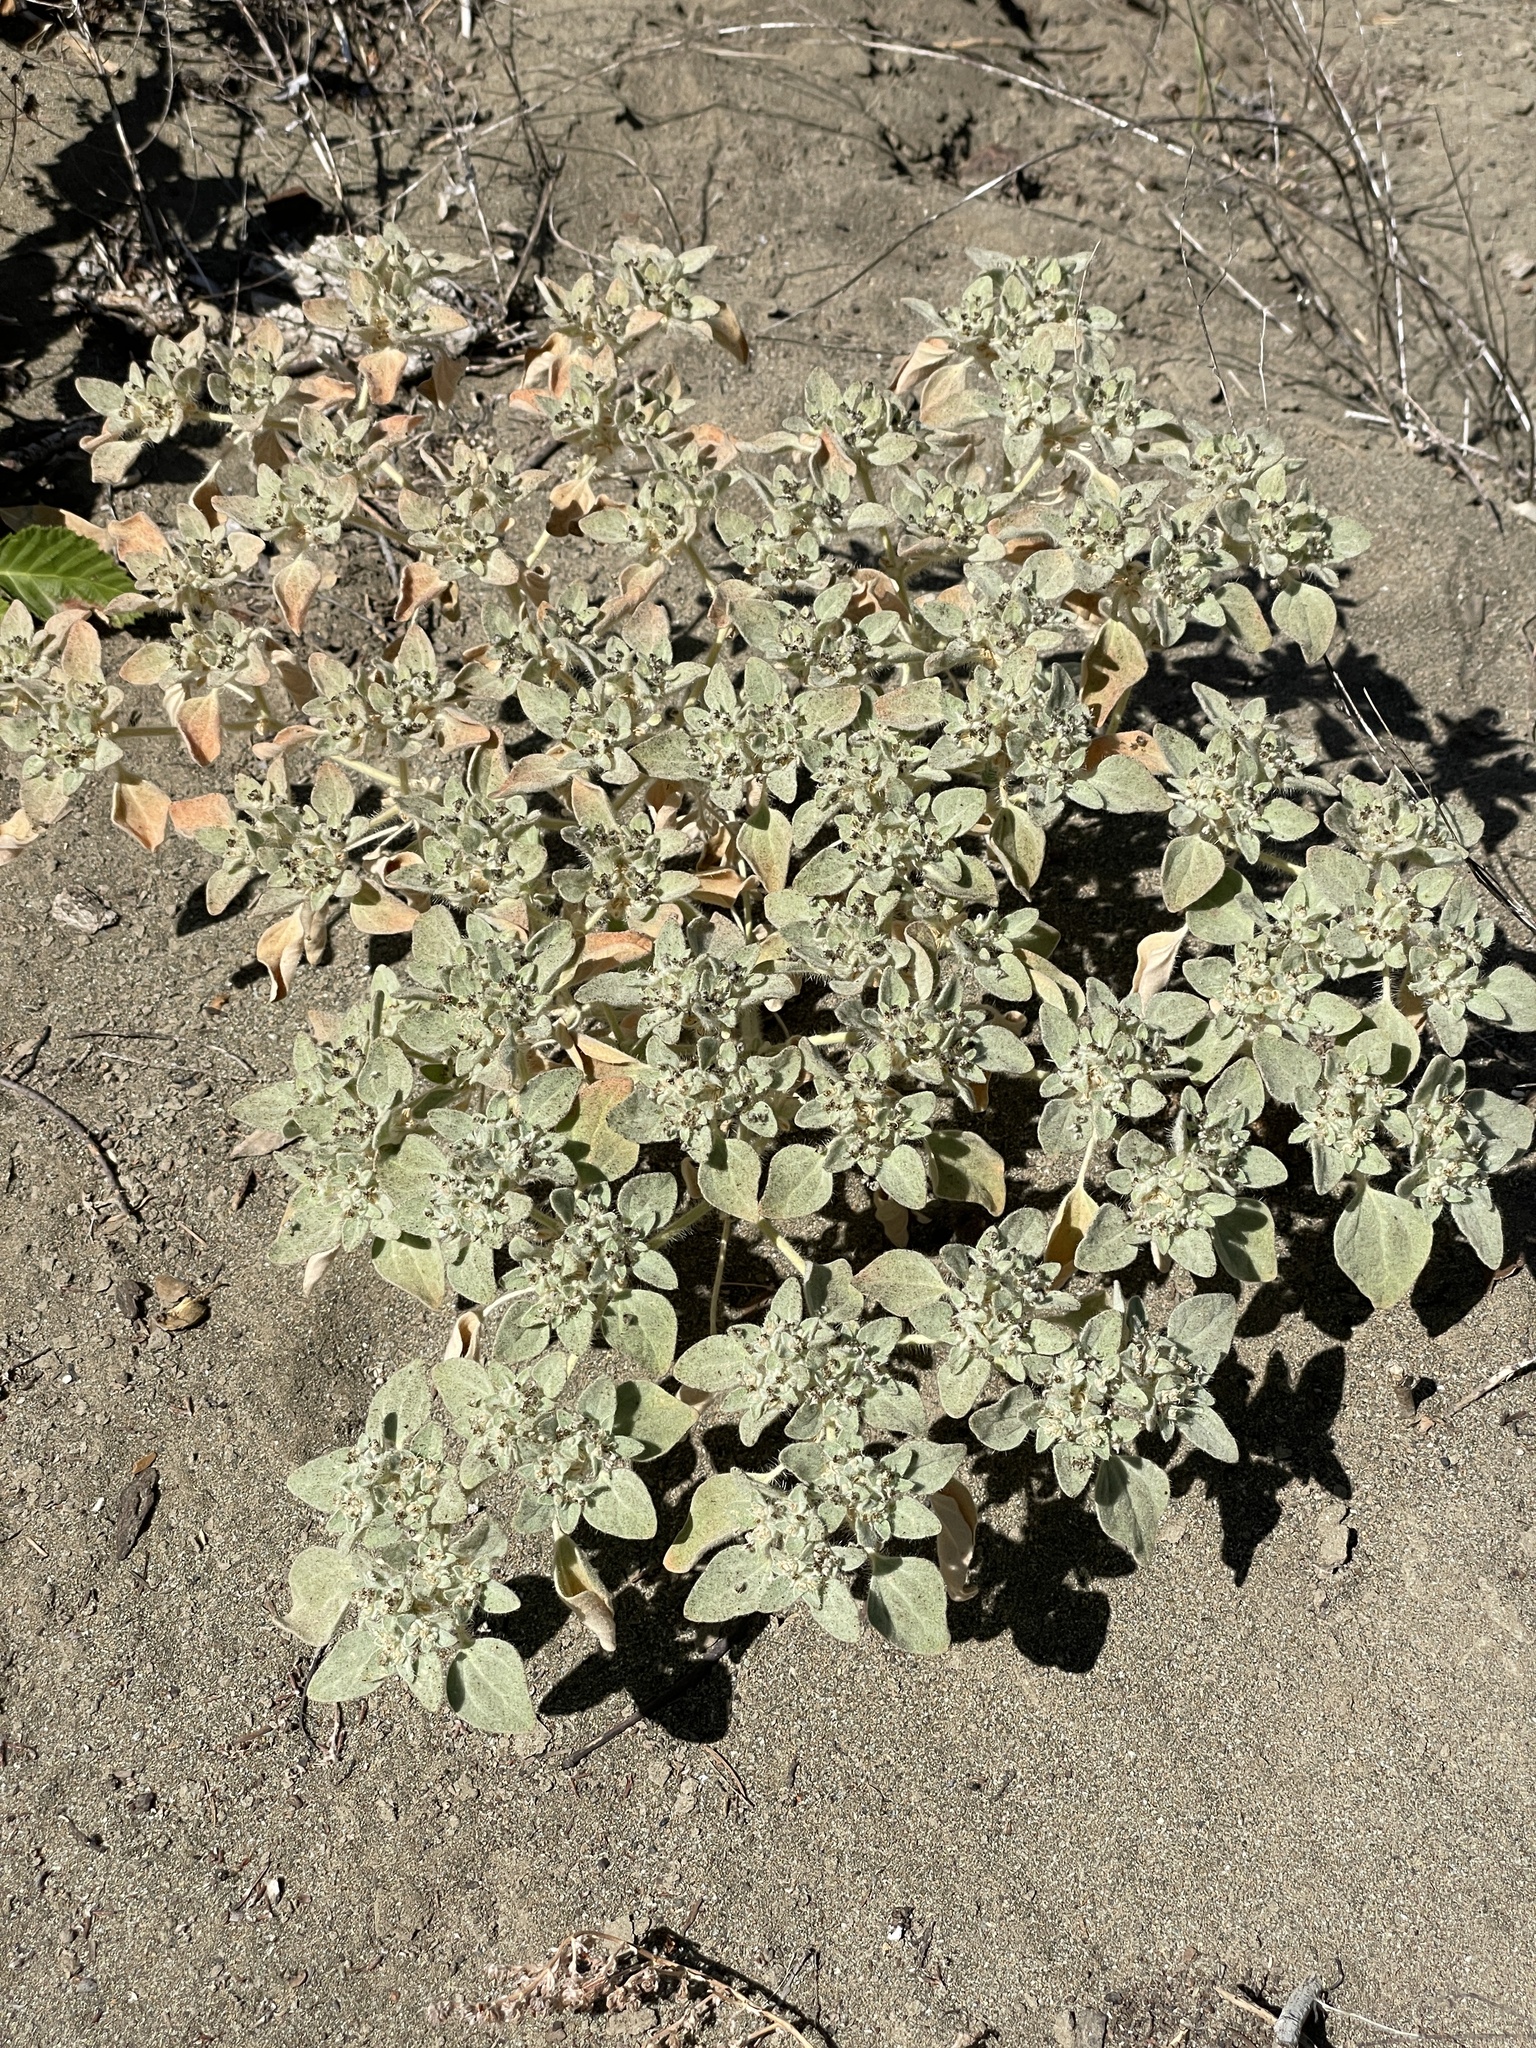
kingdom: Plantae
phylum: Tracheophyta
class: Magnoliopsida
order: Malpighiales
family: Euphorbiaceae
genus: Croton
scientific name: Croton setiger
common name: Dove weed
